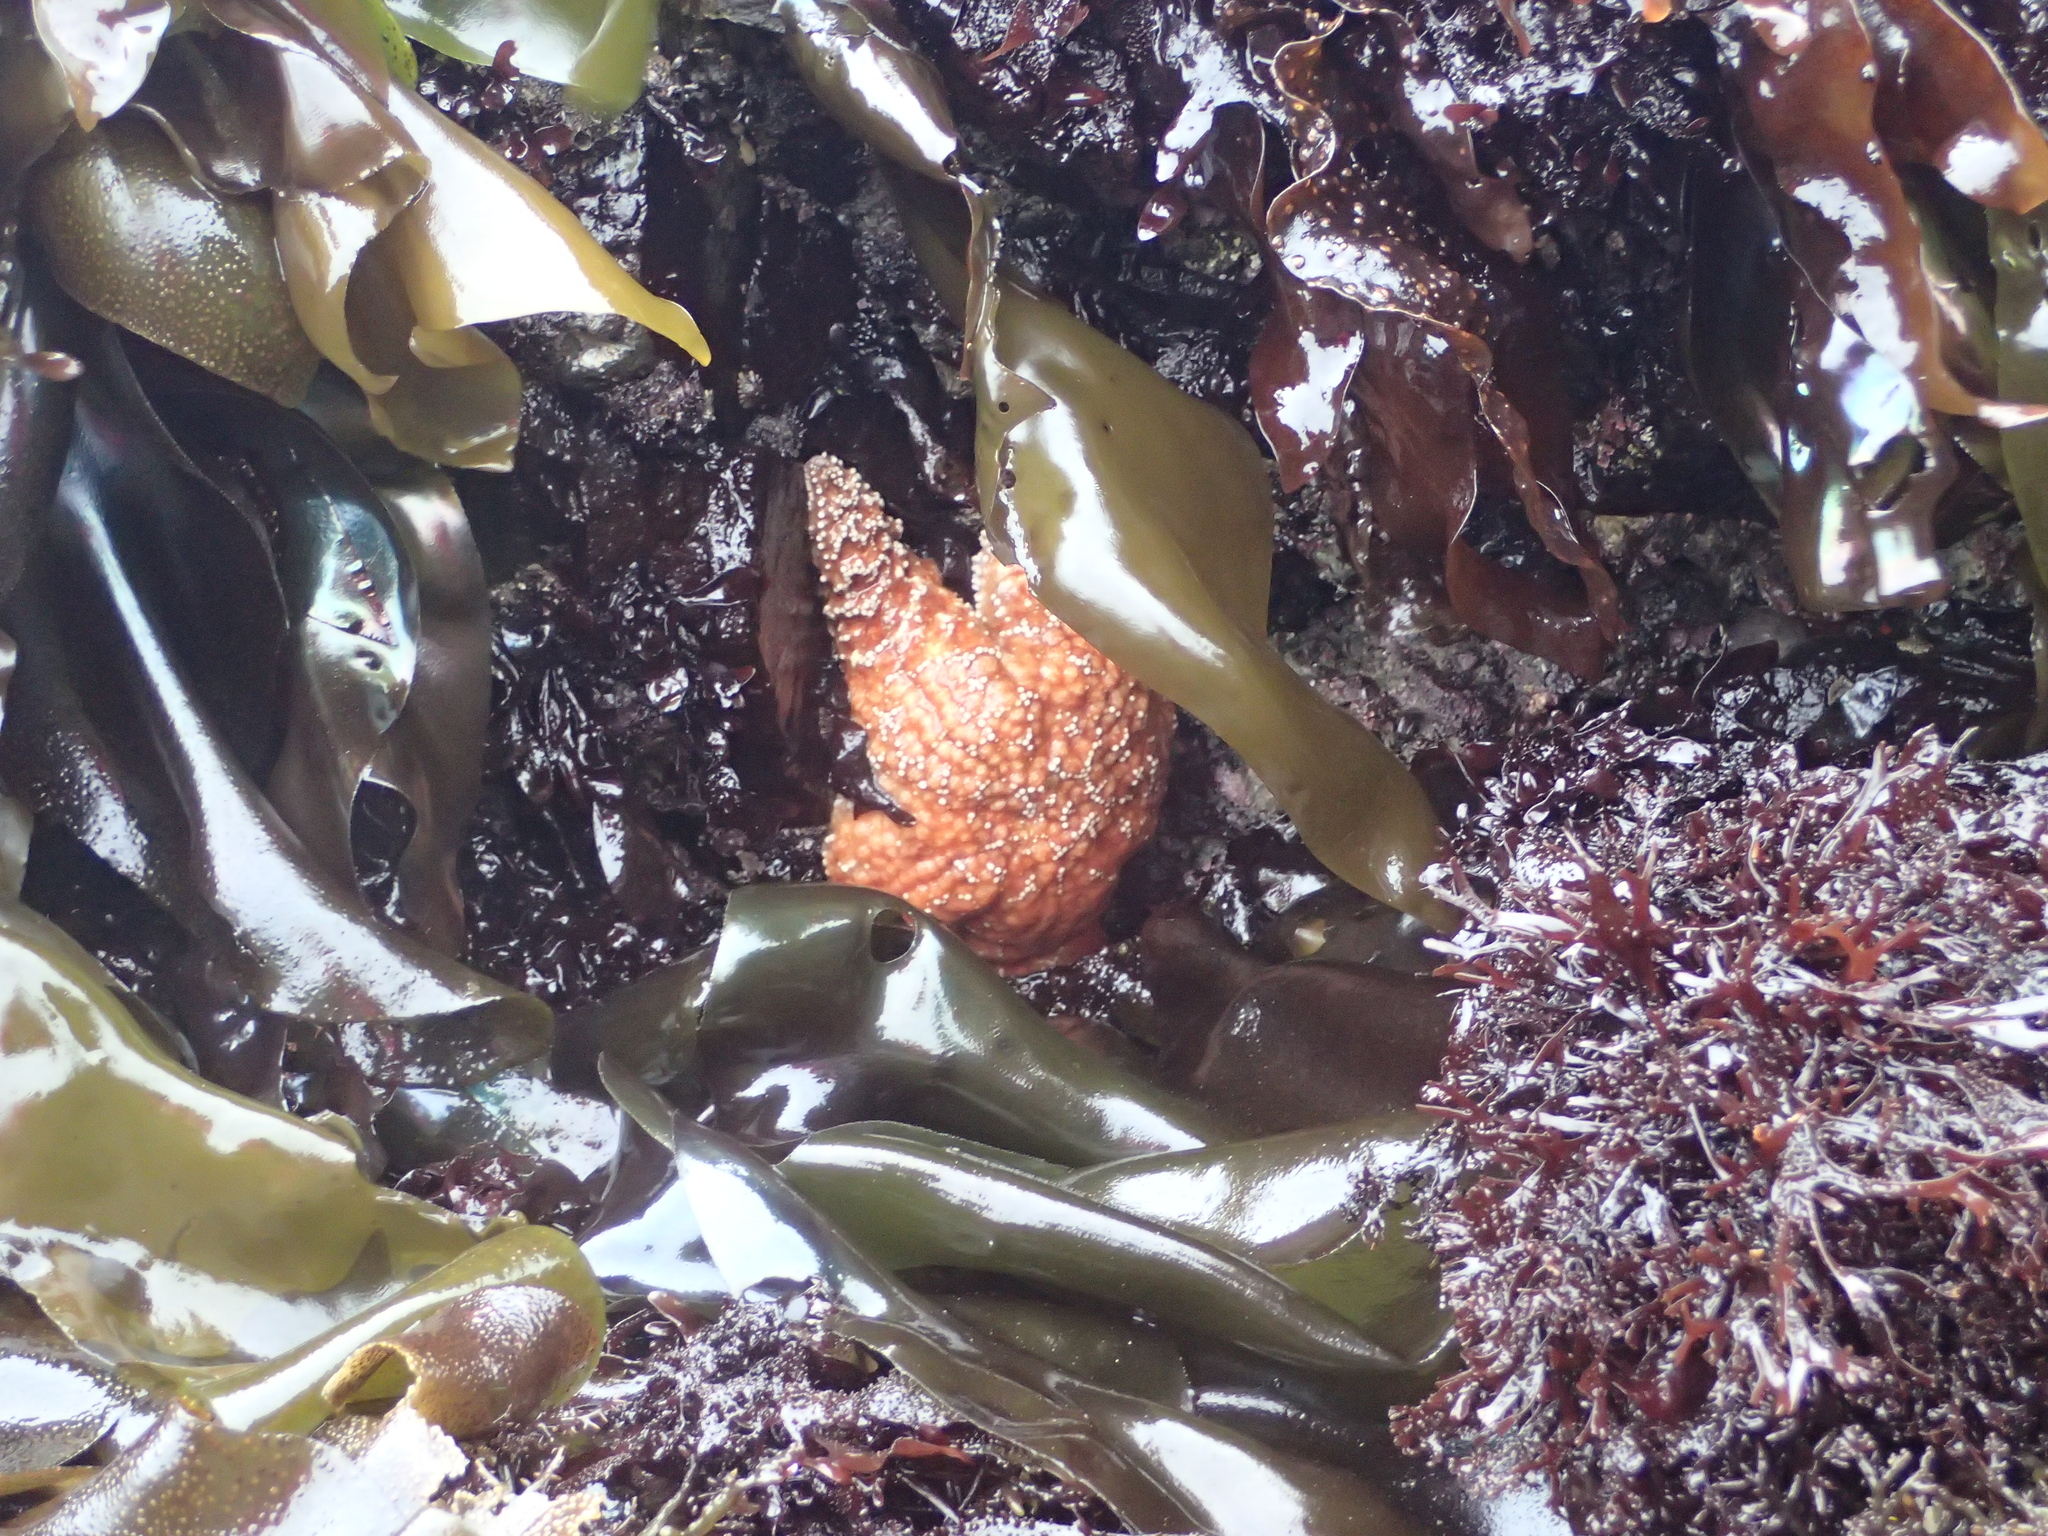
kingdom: Animalia
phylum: Echinodermata
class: Asteroidea
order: Forcipulatida
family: Asteriidae
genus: Pisaster
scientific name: Pisaster ochraceus
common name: Ochre stars
